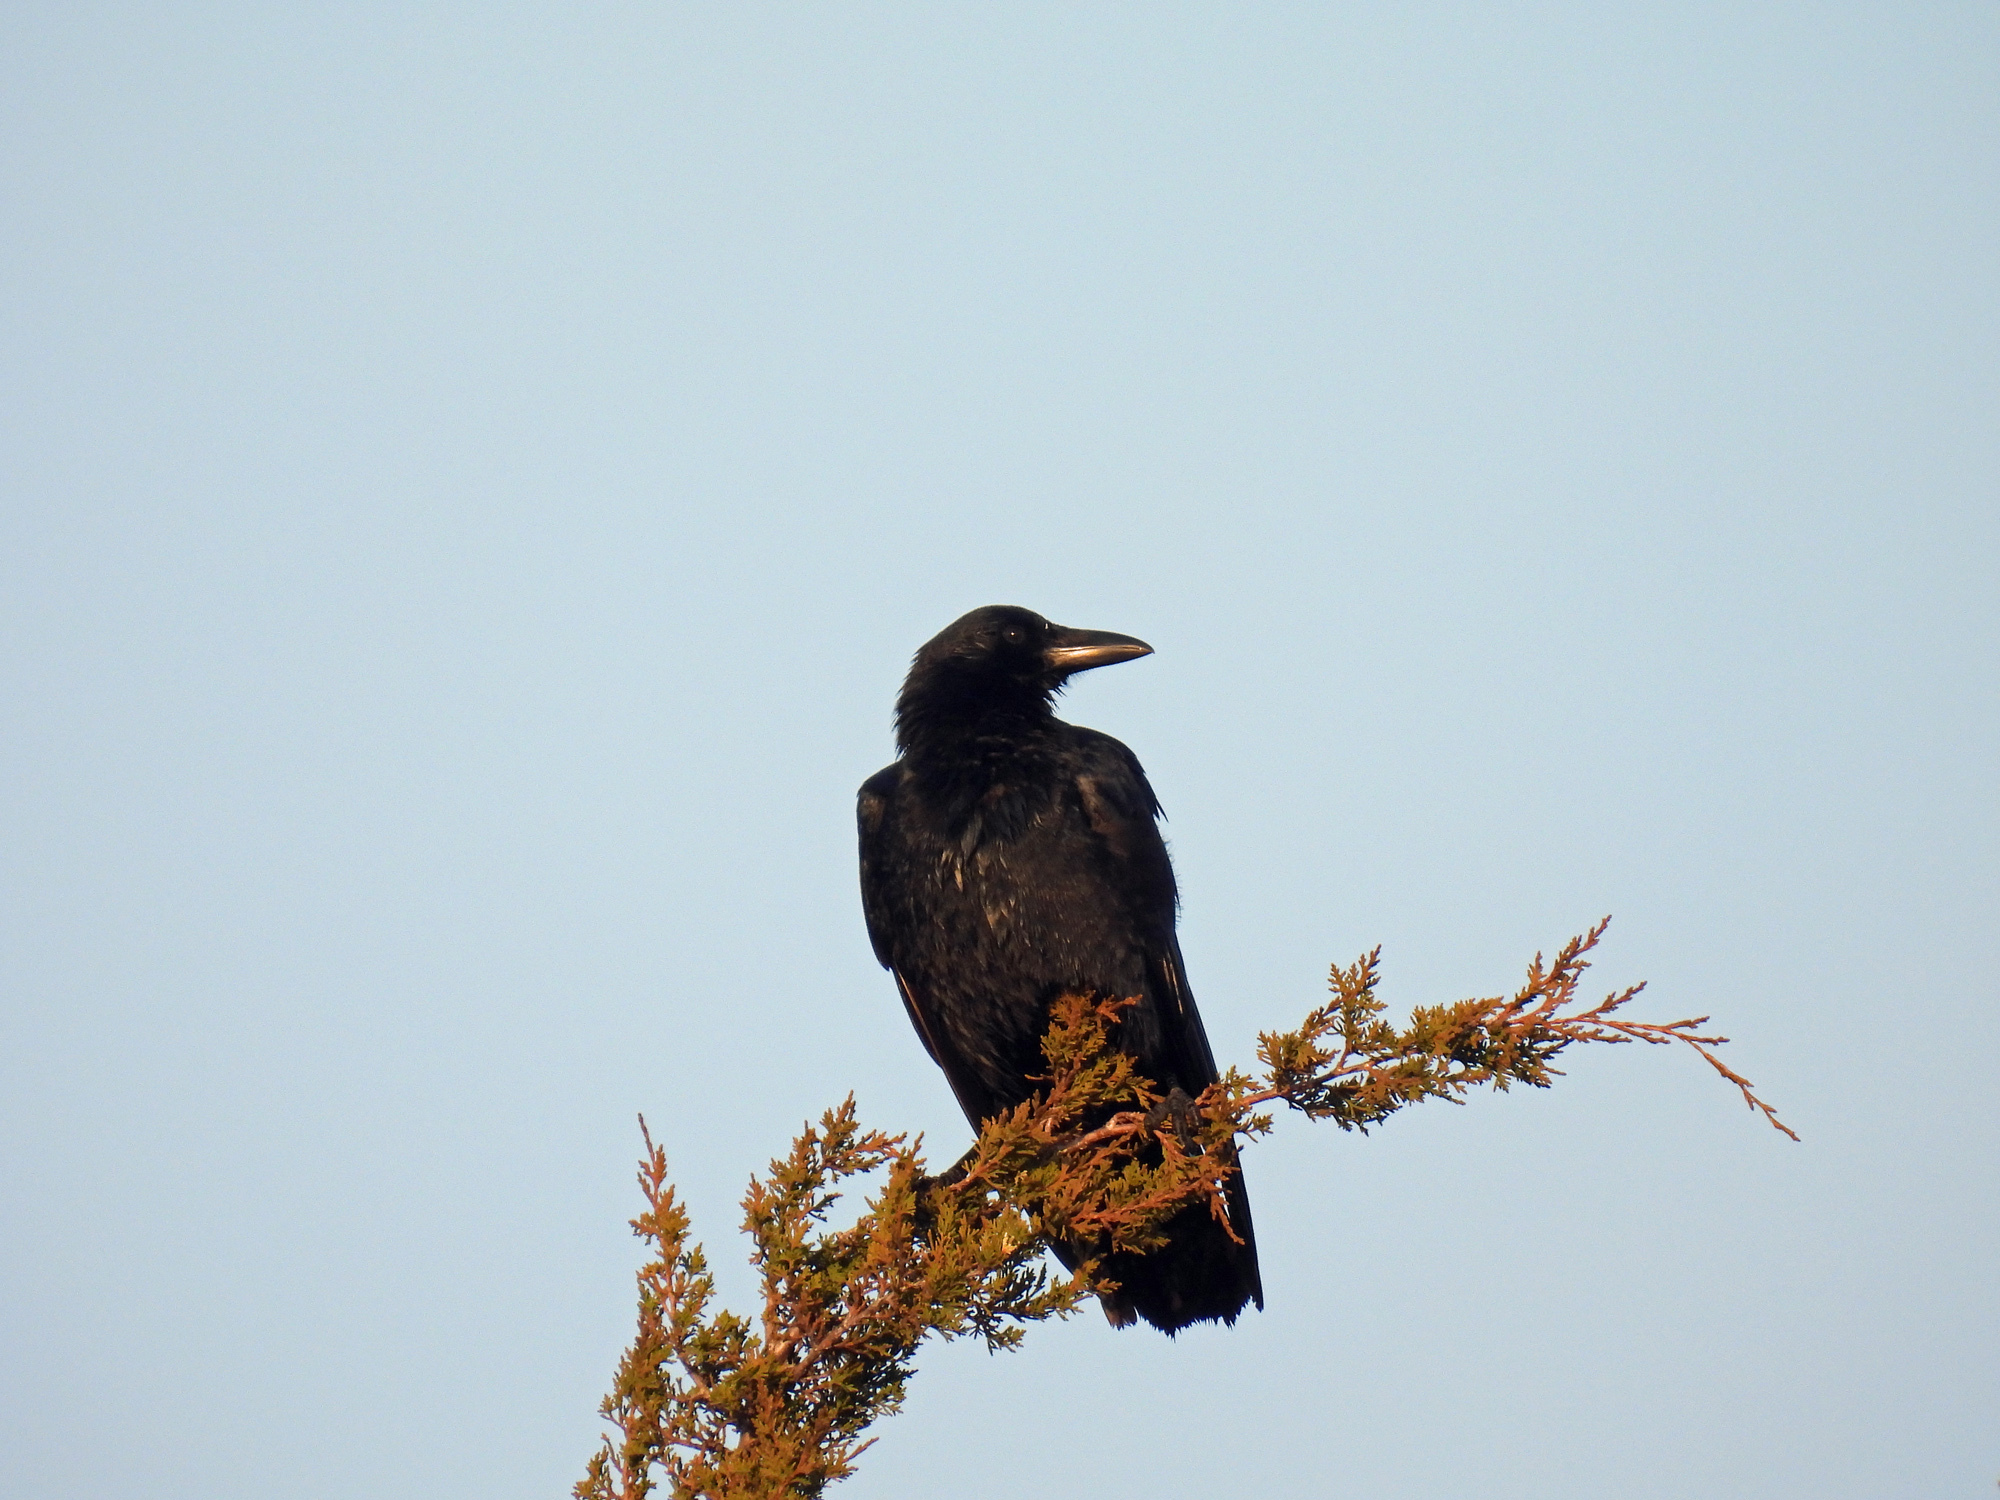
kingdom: Animalia
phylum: Chordata
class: Aves
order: Passeriformes
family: Corvidae
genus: Corvus
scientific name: Corvus brachyrhynchos
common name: American crow
